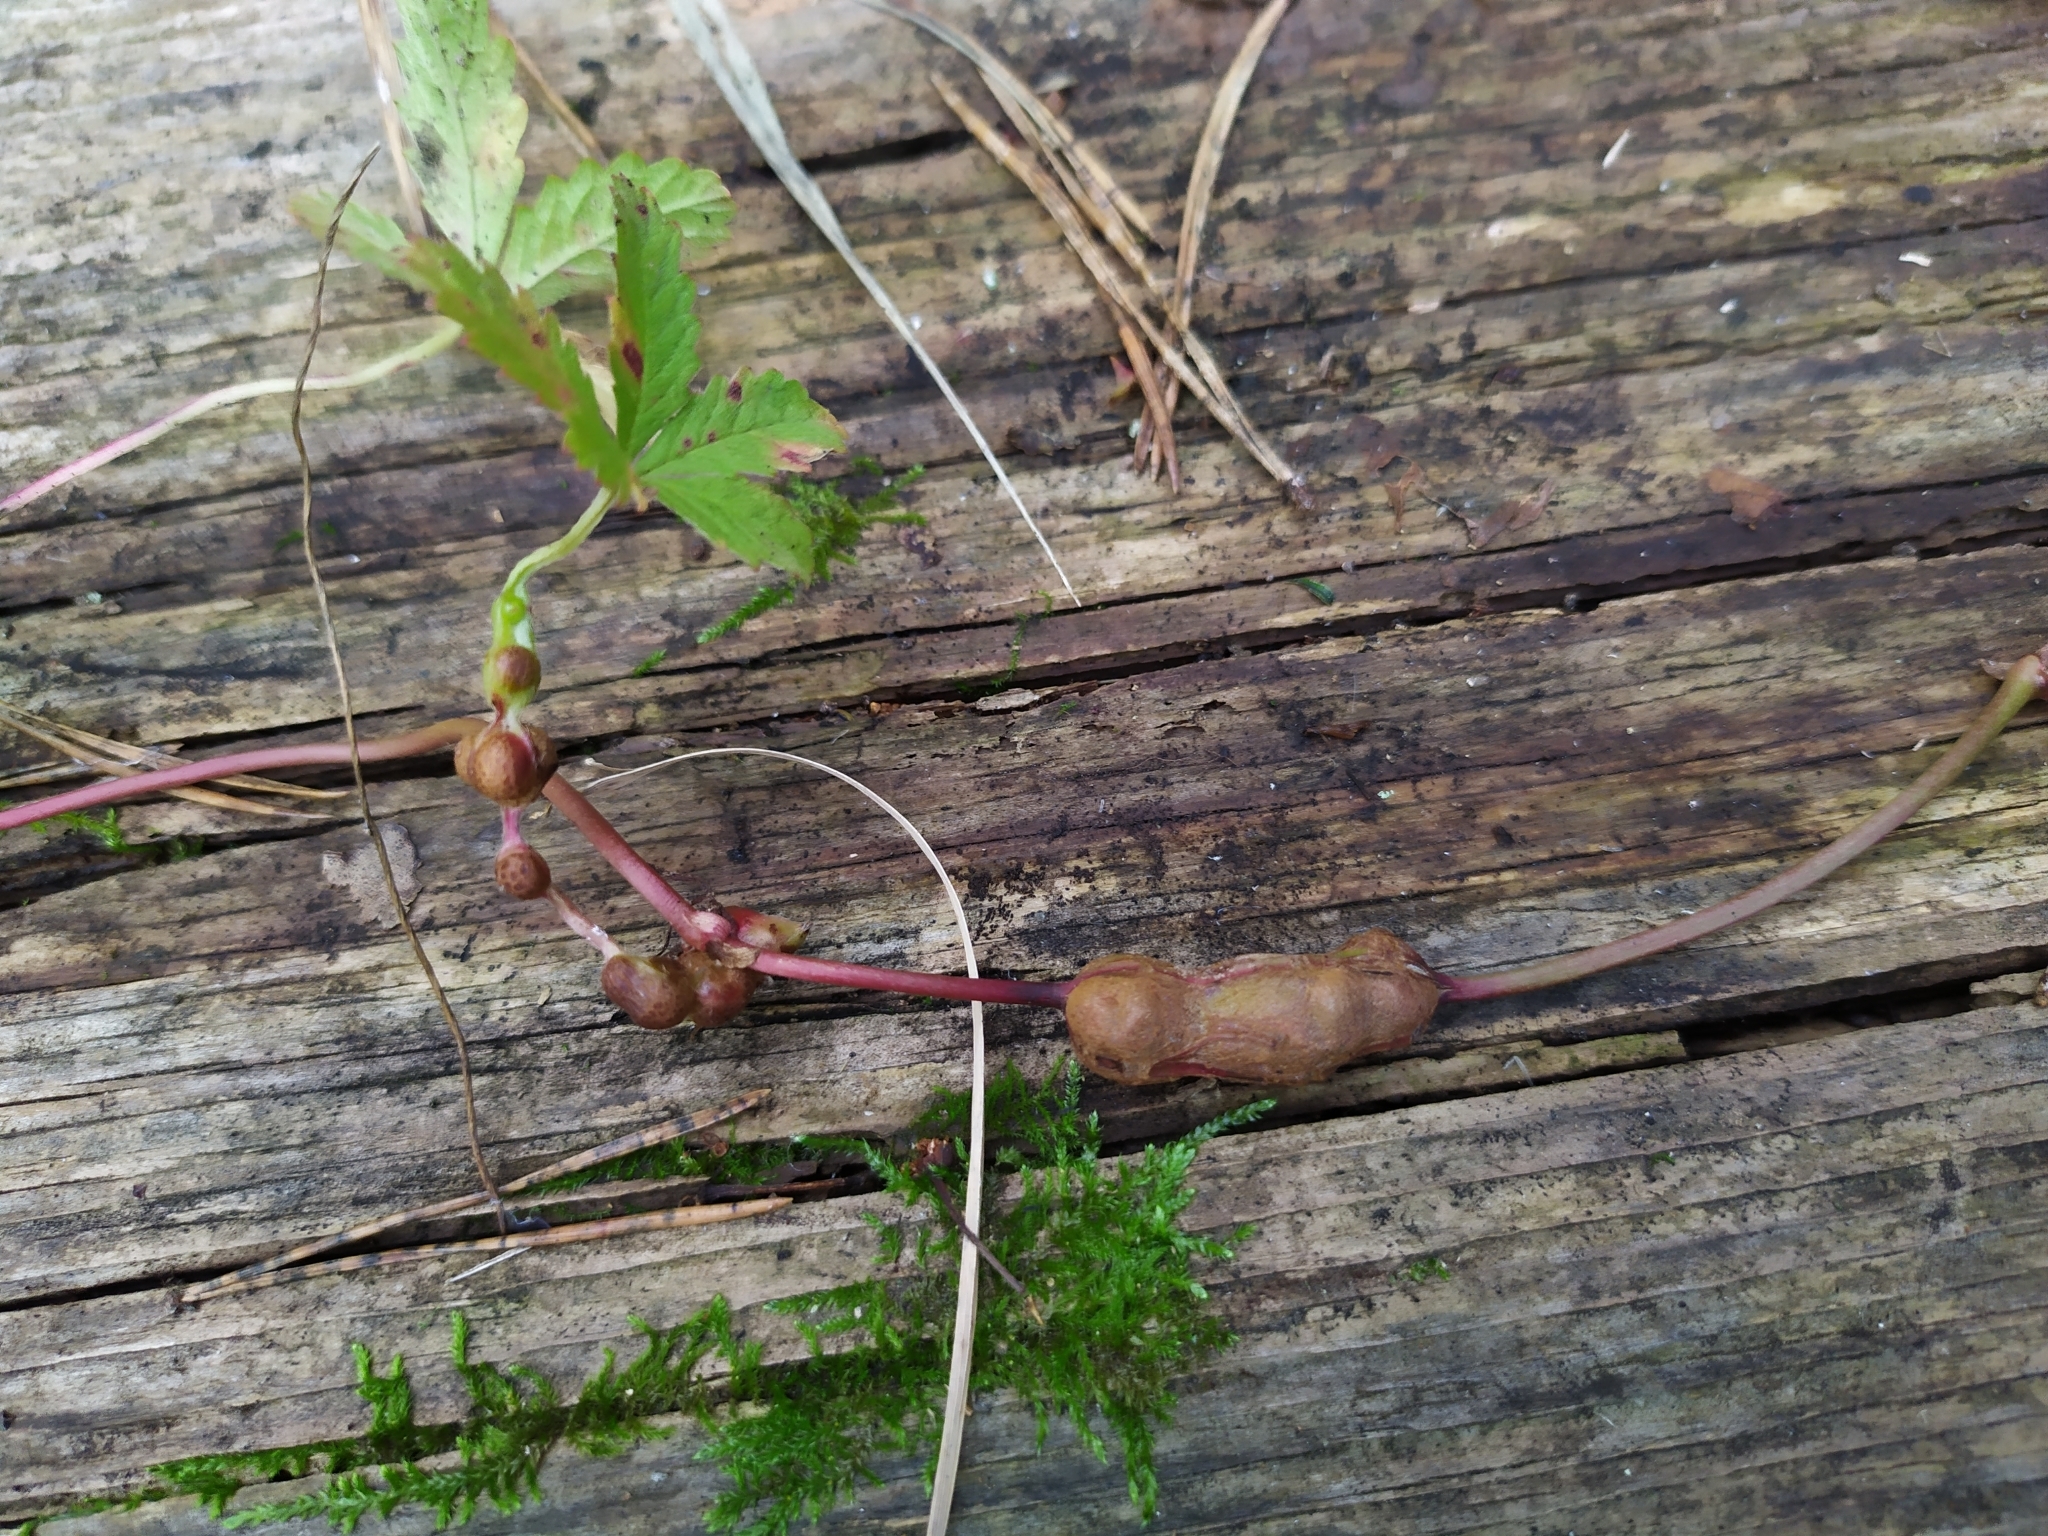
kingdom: Animalia
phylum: Arthropoda
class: Insecta
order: Hymenoptera
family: Cynipidae
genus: Xestophanes
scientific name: Xestophanes potentillae
